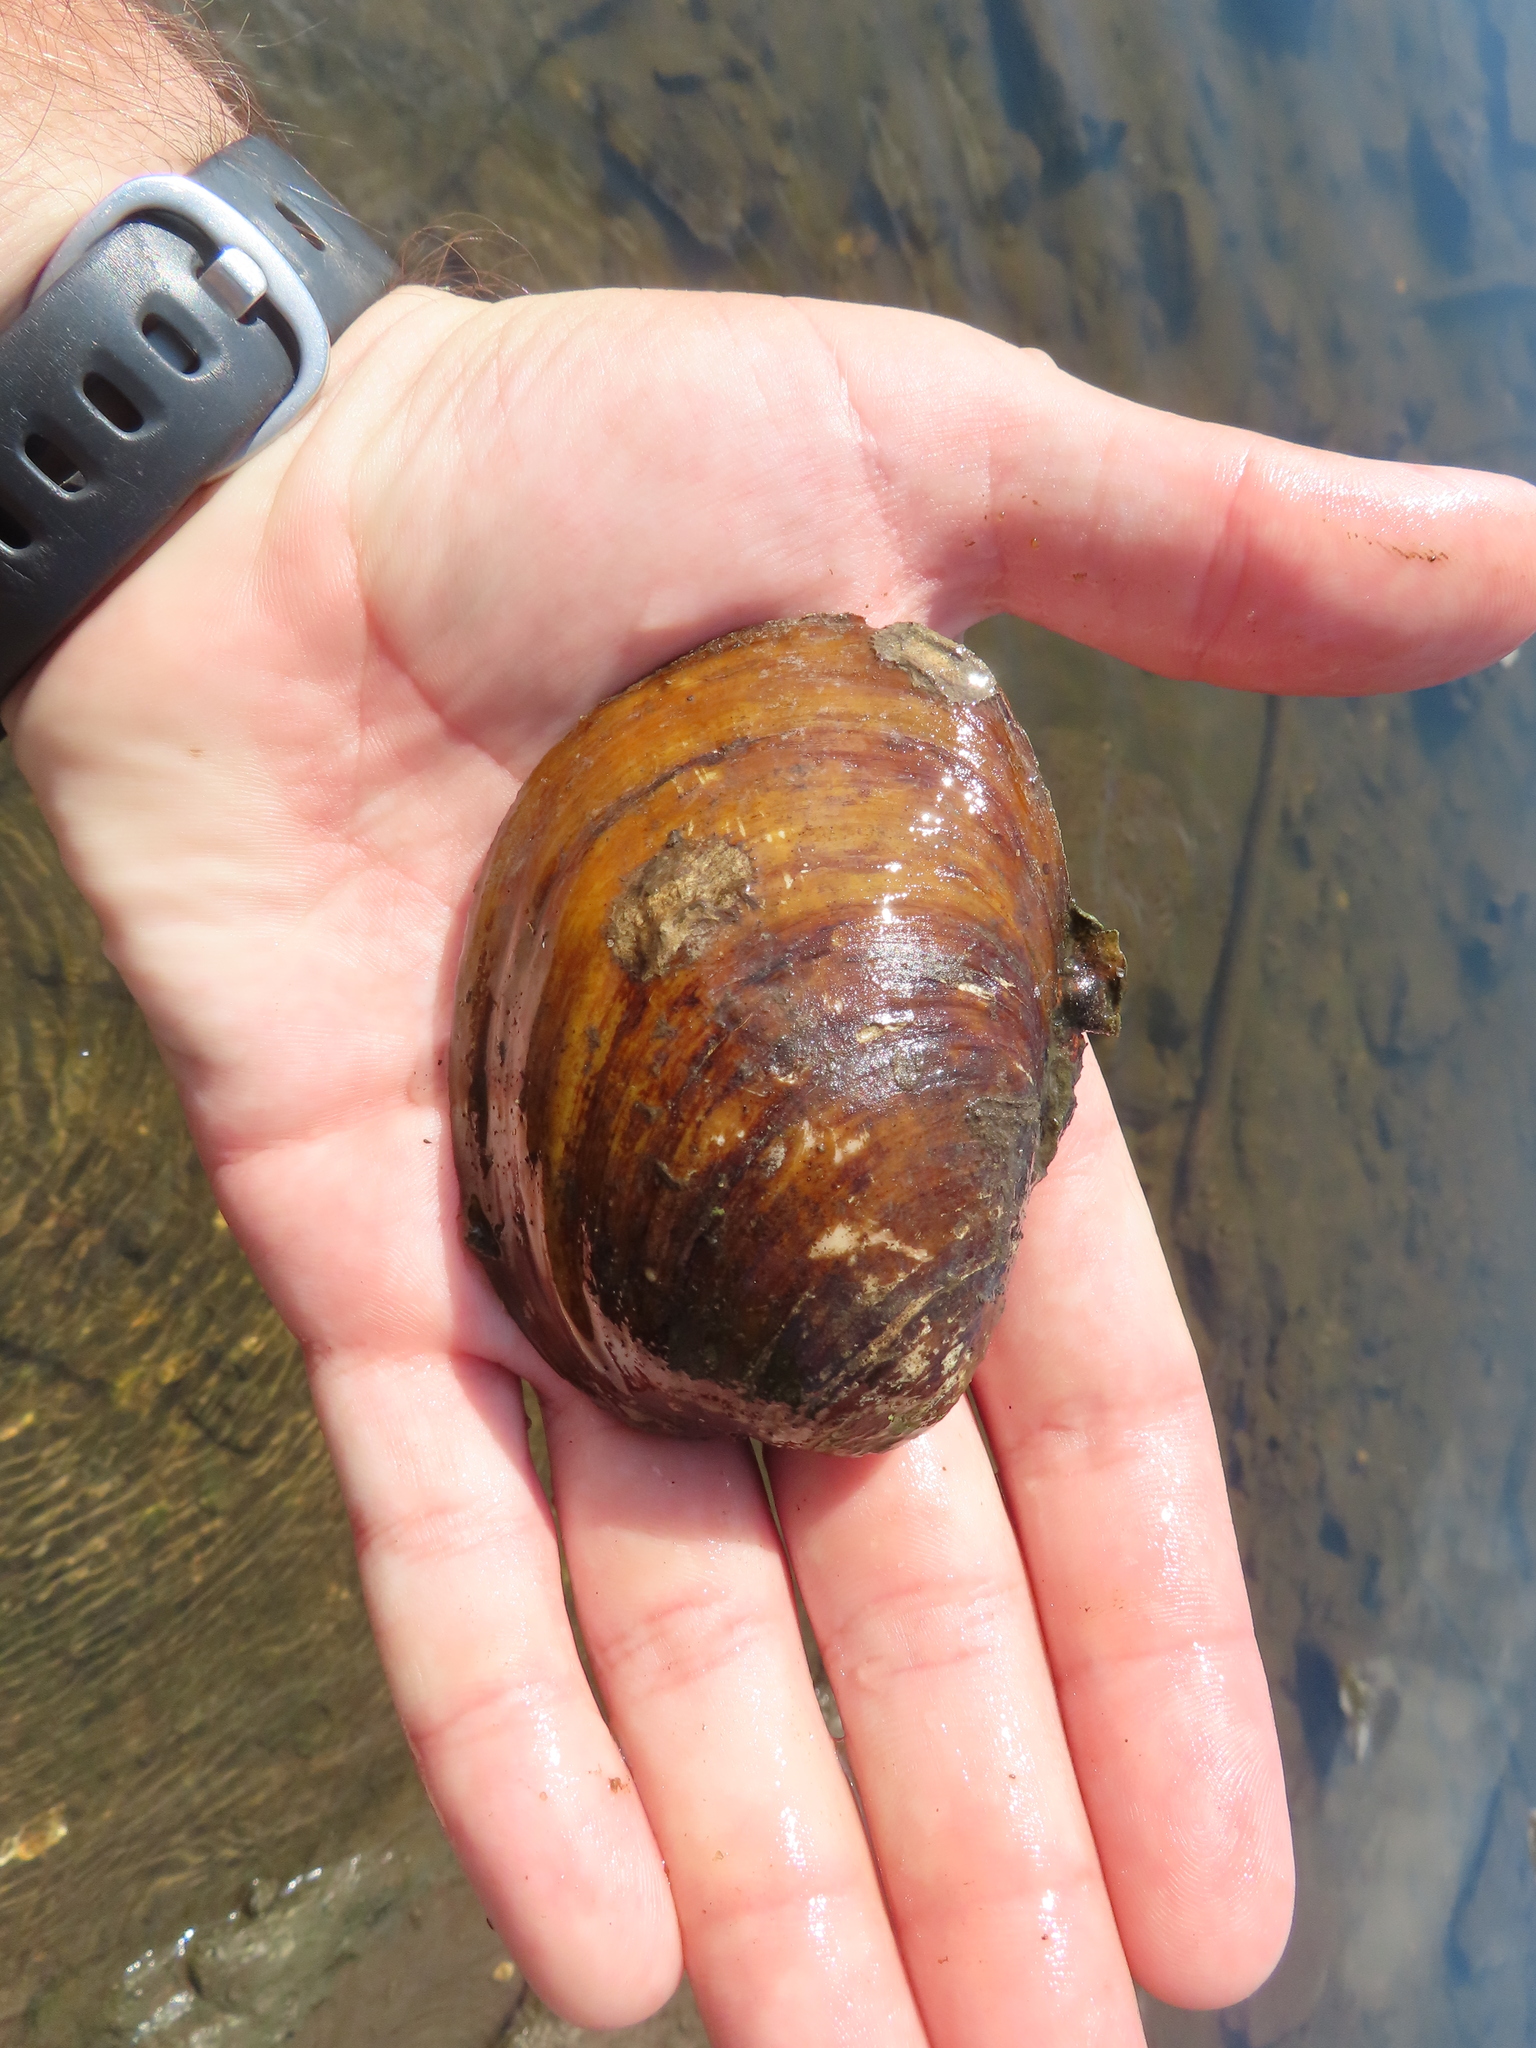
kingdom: Animalia
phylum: Mollusca
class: Bivalvia
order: Unionida
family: Unionidae
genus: Obovaria
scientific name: Obovaria olivaria
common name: Hickorynut
